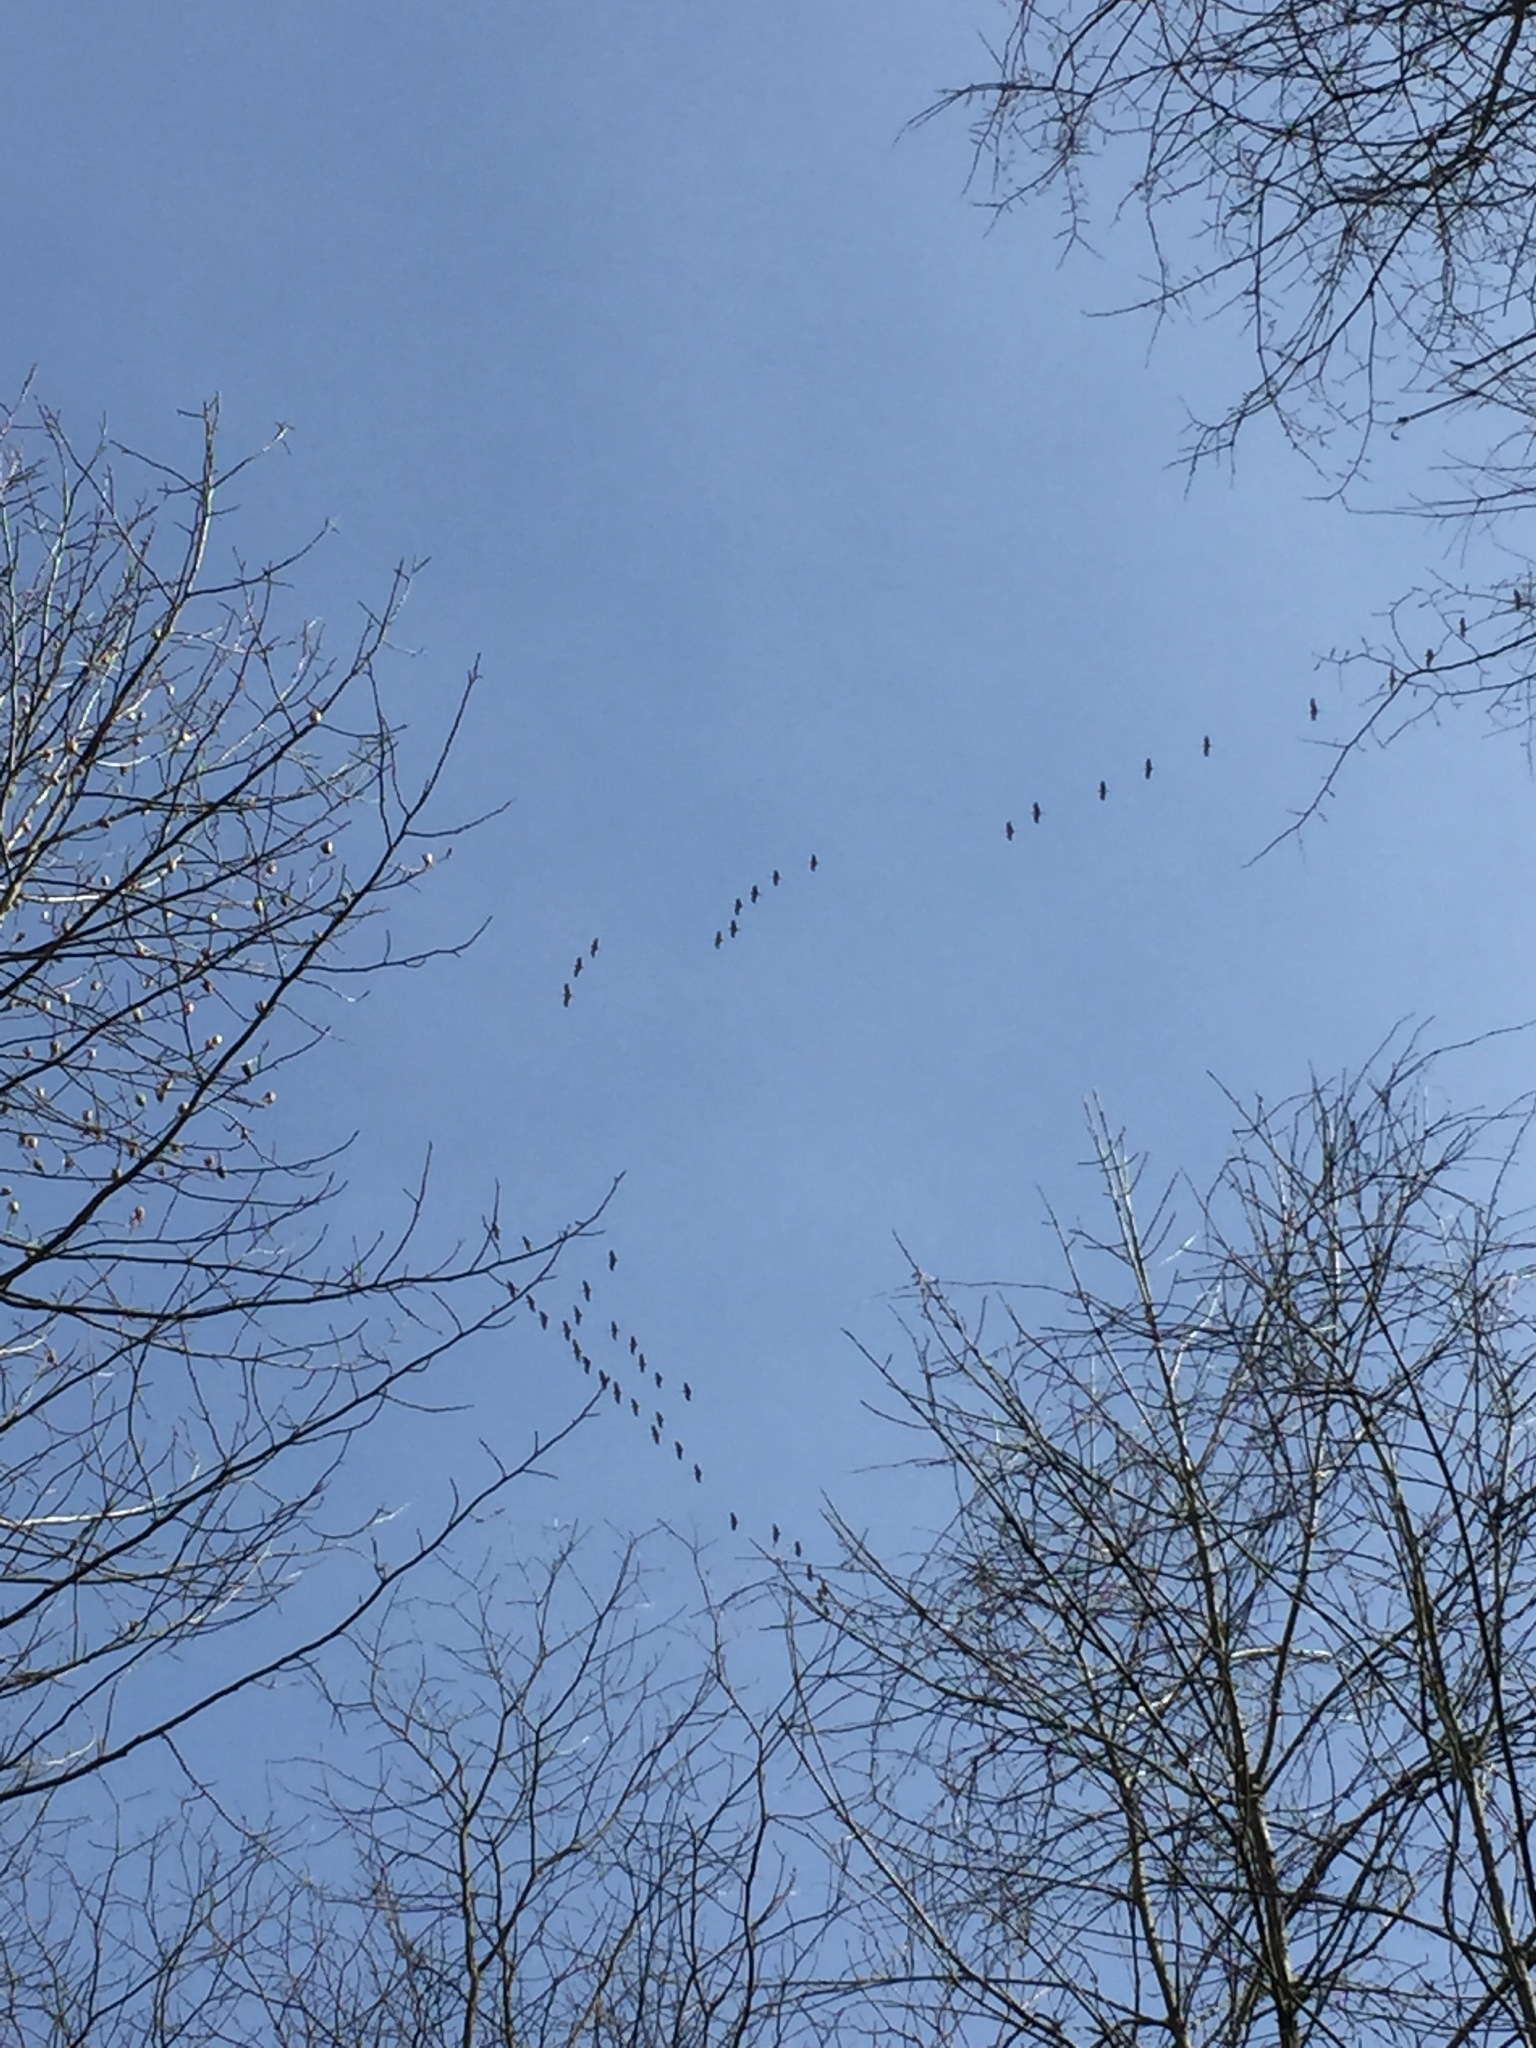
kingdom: Animalia
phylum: Chordata
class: Aves
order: Gruiformes
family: Gruidae
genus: Grus
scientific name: Grus canadensis
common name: Sandhill crane
